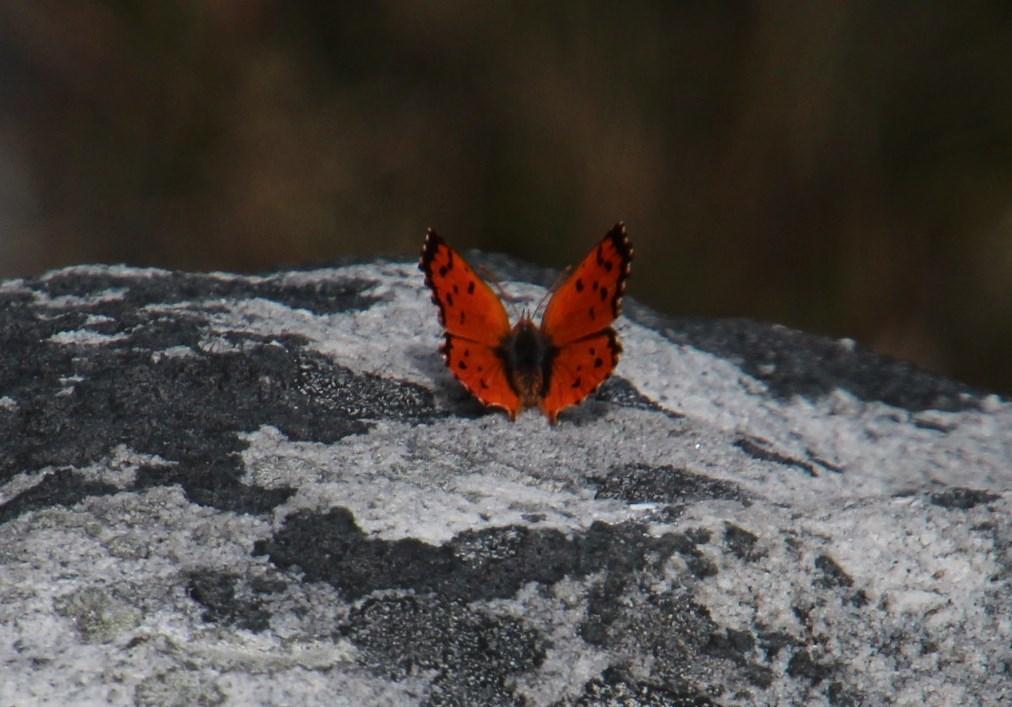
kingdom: Animalia
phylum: Arthropoda
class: Insecta
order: Lepidoptera
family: Lycaenidae
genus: Chrysoritis
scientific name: Chrysoritis
